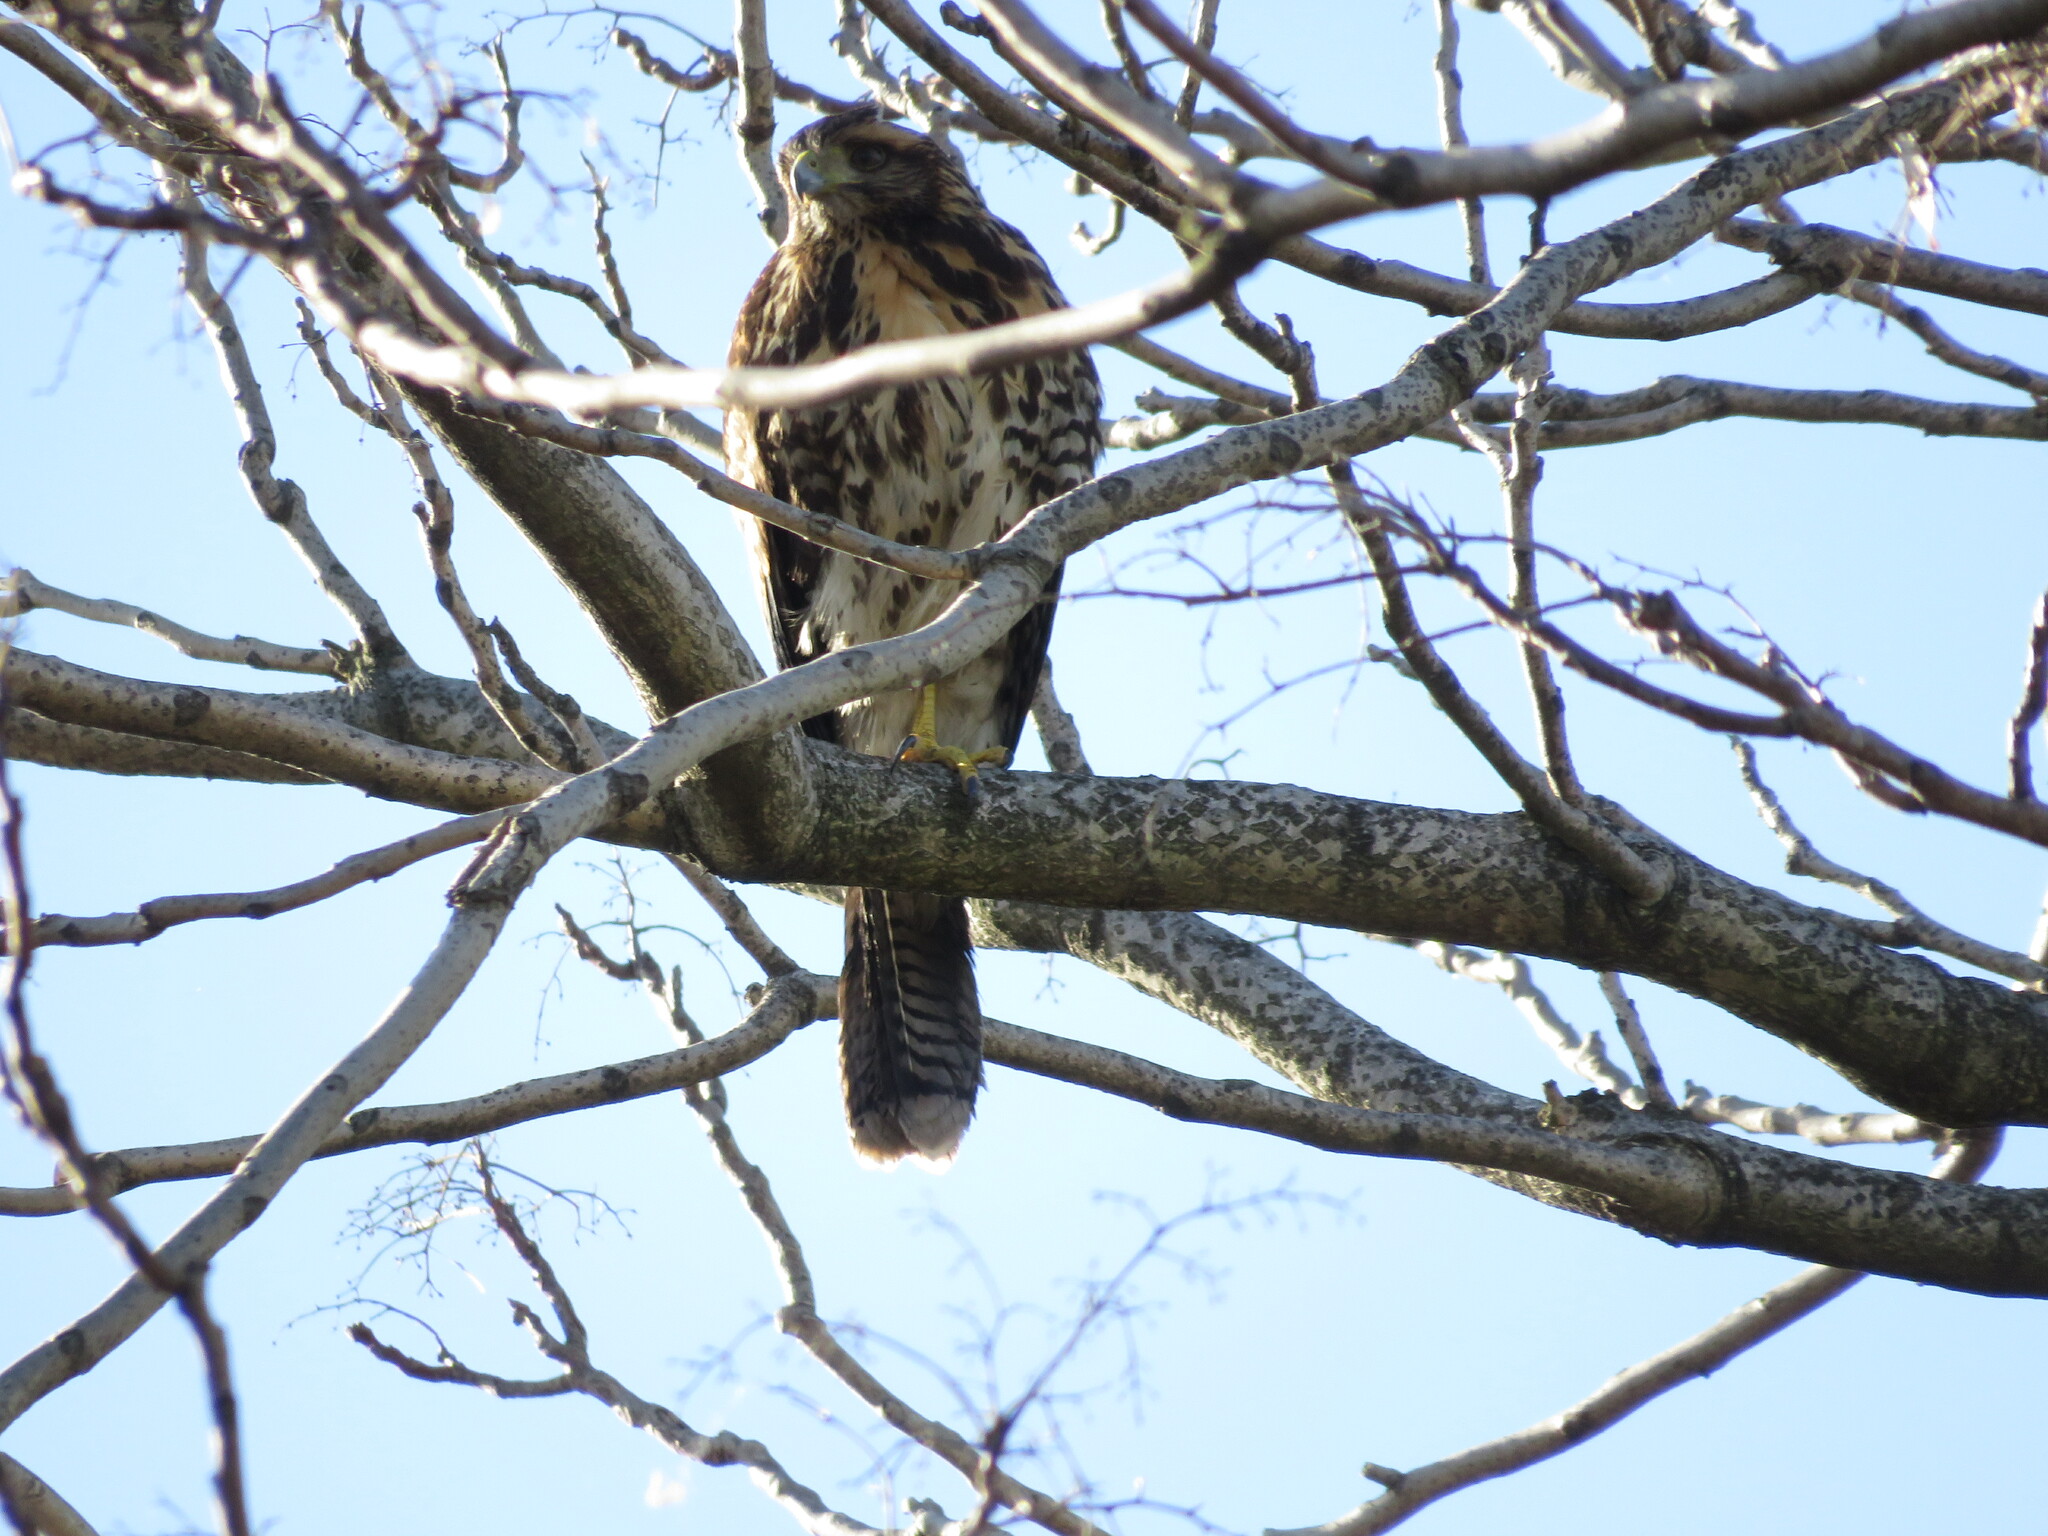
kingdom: Animalia
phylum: Chordata
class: Aves
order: Accipitriformes
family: Accipitridae
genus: Parabuteo
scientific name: Parabuteo unicinctus
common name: Harris's hawk
